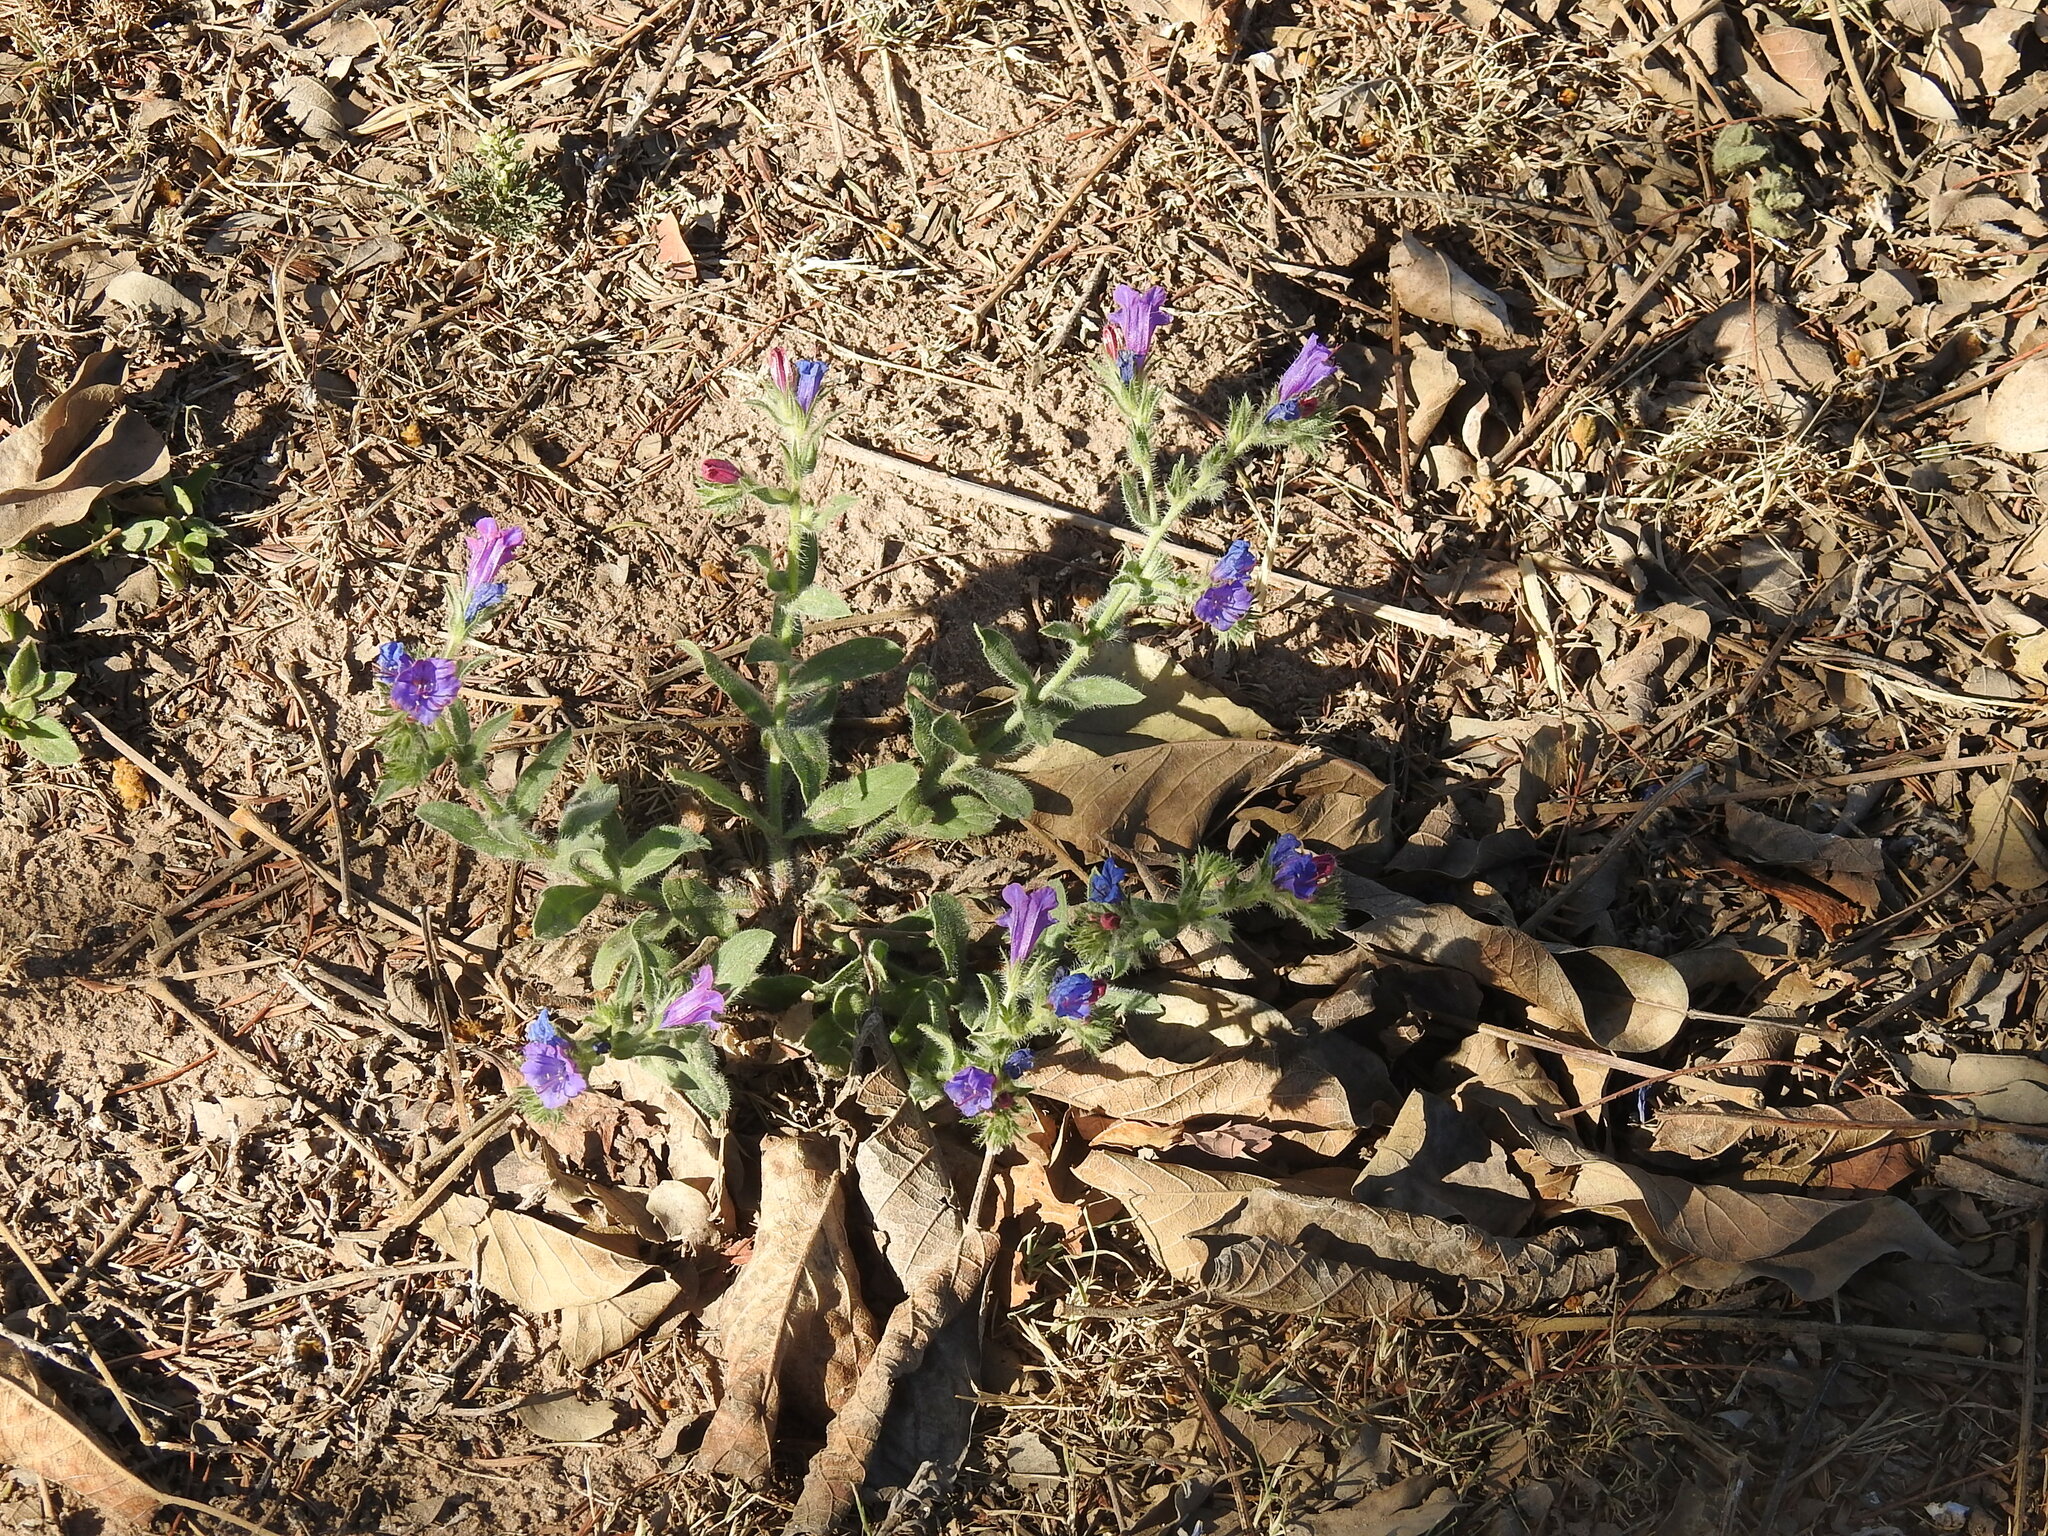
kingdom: Plantae
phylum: Tracheophyta
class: Magnoliopsida
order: Boraginales
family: Boraginaceae
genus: Echium
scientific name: Echium plantagineum
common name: Purple viper's-bugloss
